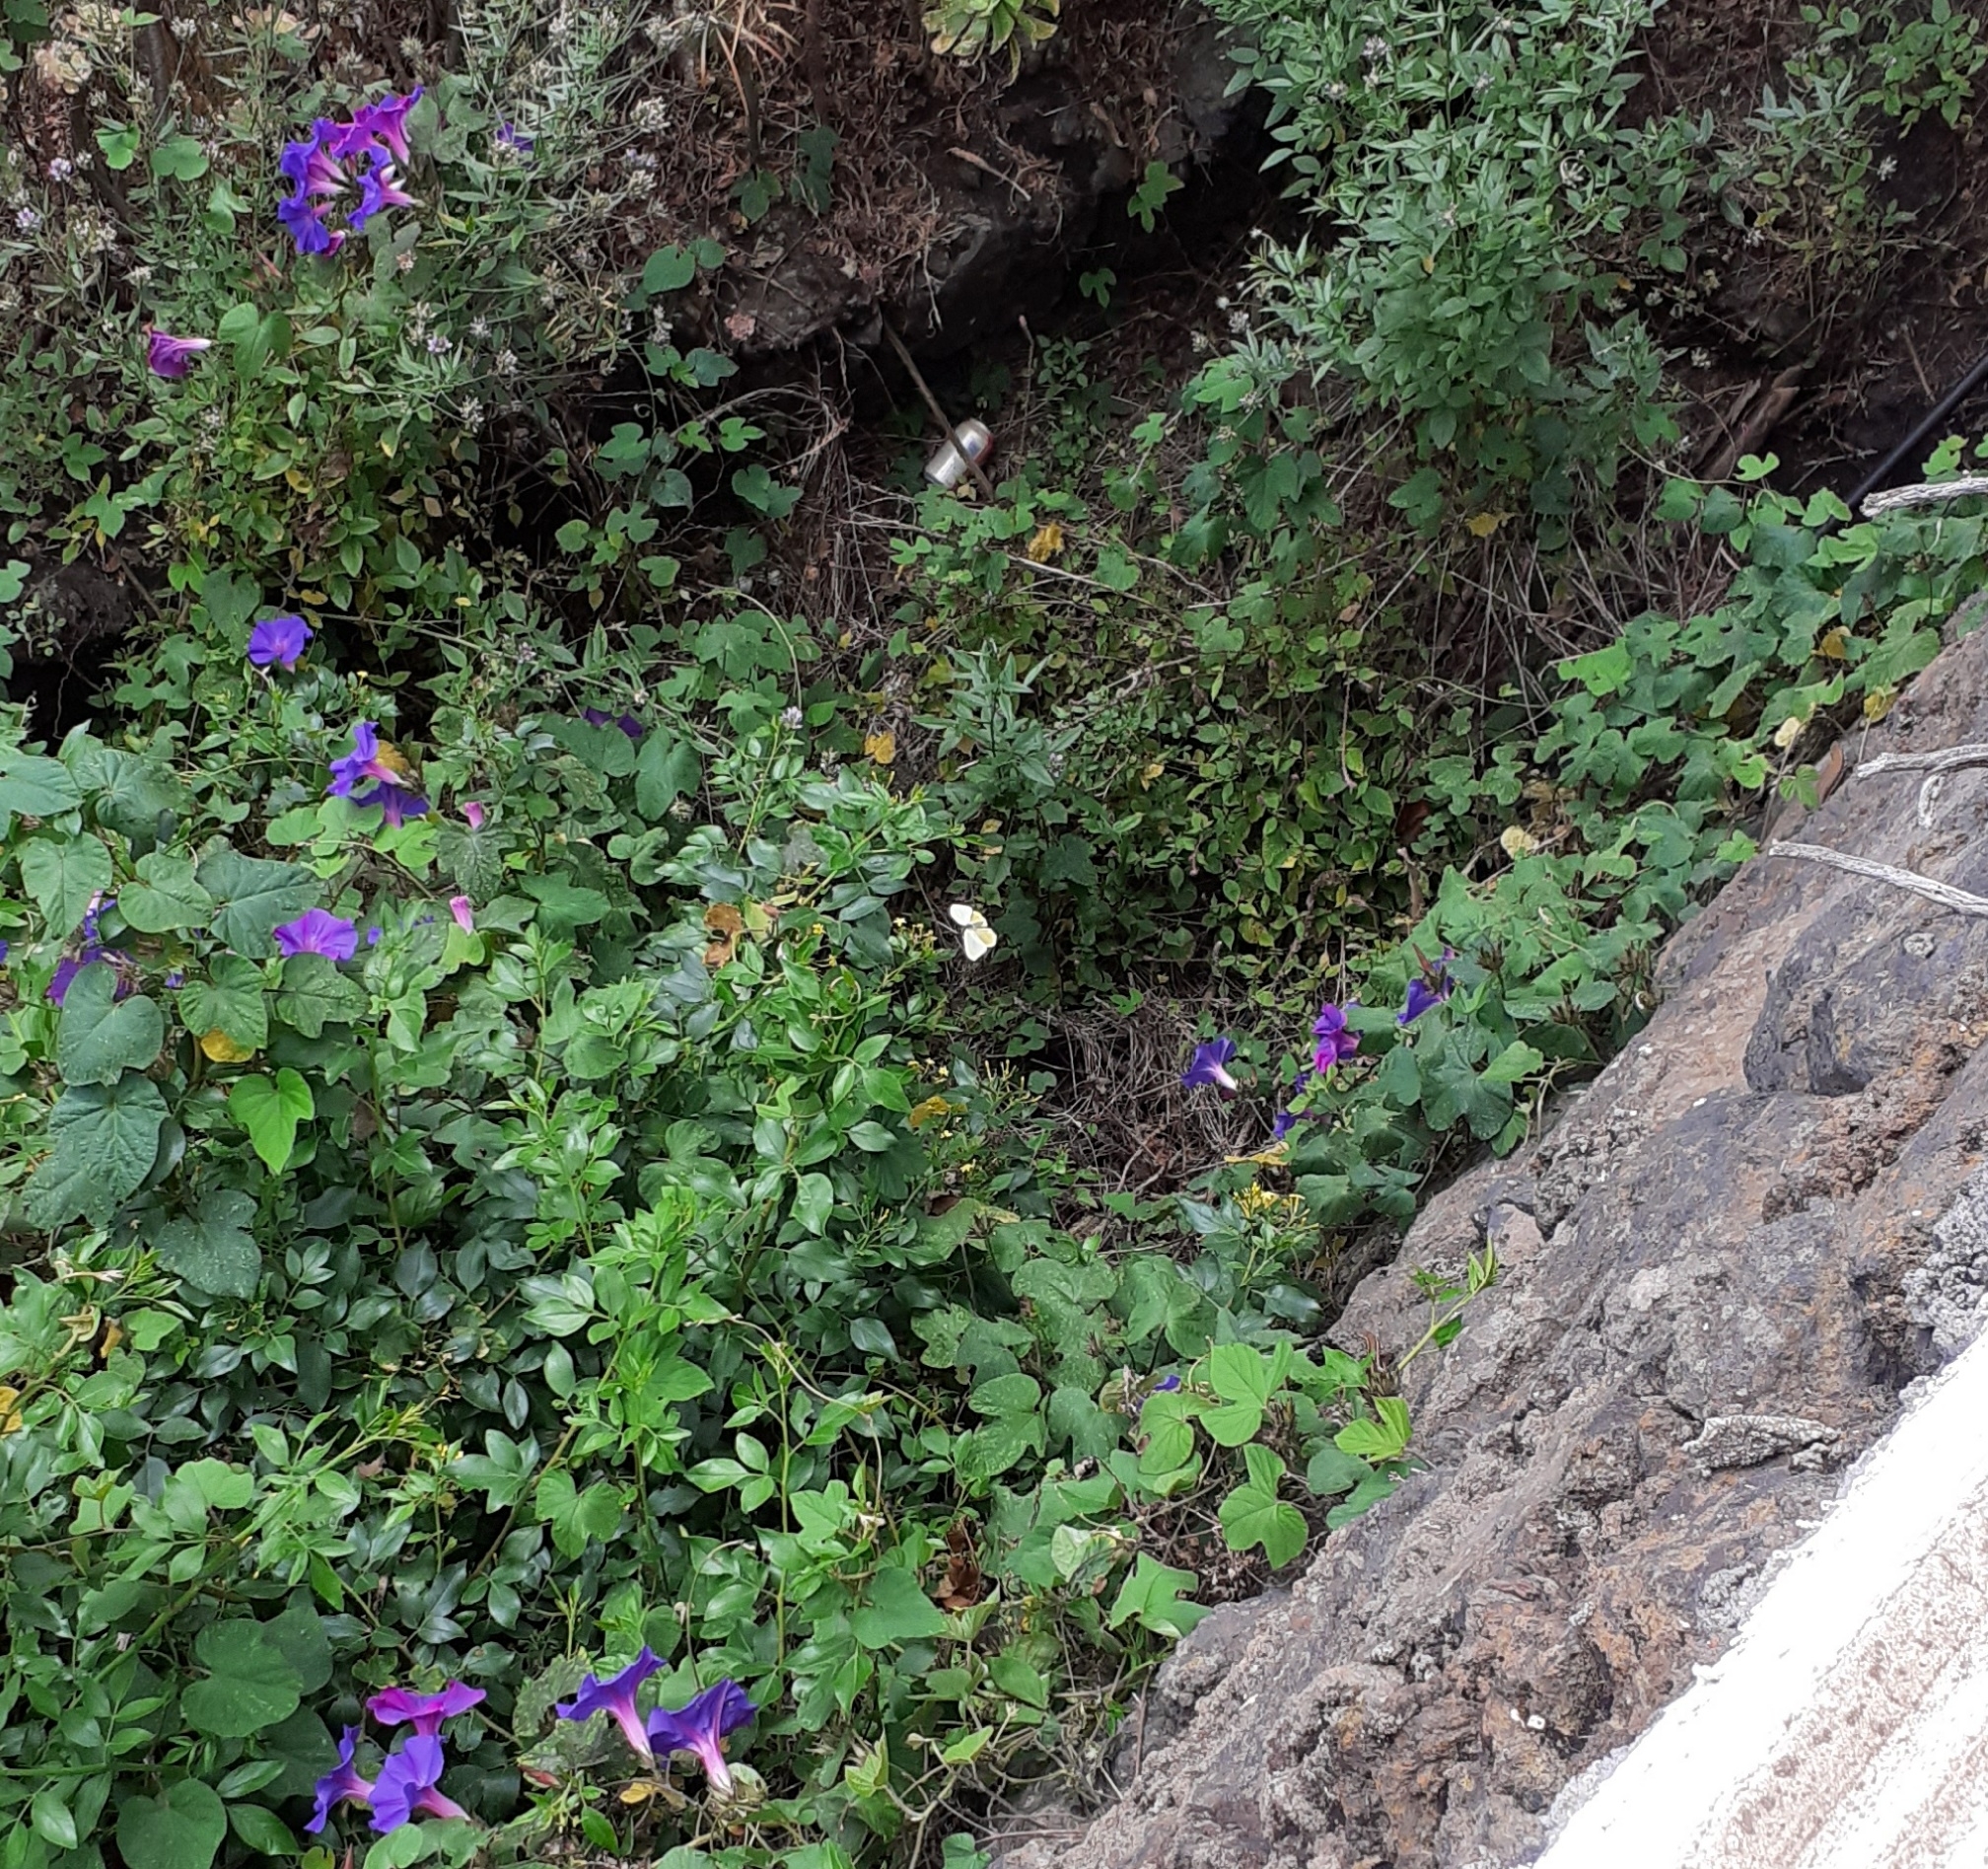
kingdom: Animalia
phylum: Arthropoda
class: Insecta
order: Lepidoptera
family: Pieridae
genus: Gonepteryx
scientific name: Gonepteryx cleobule
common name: Canary brimstone
